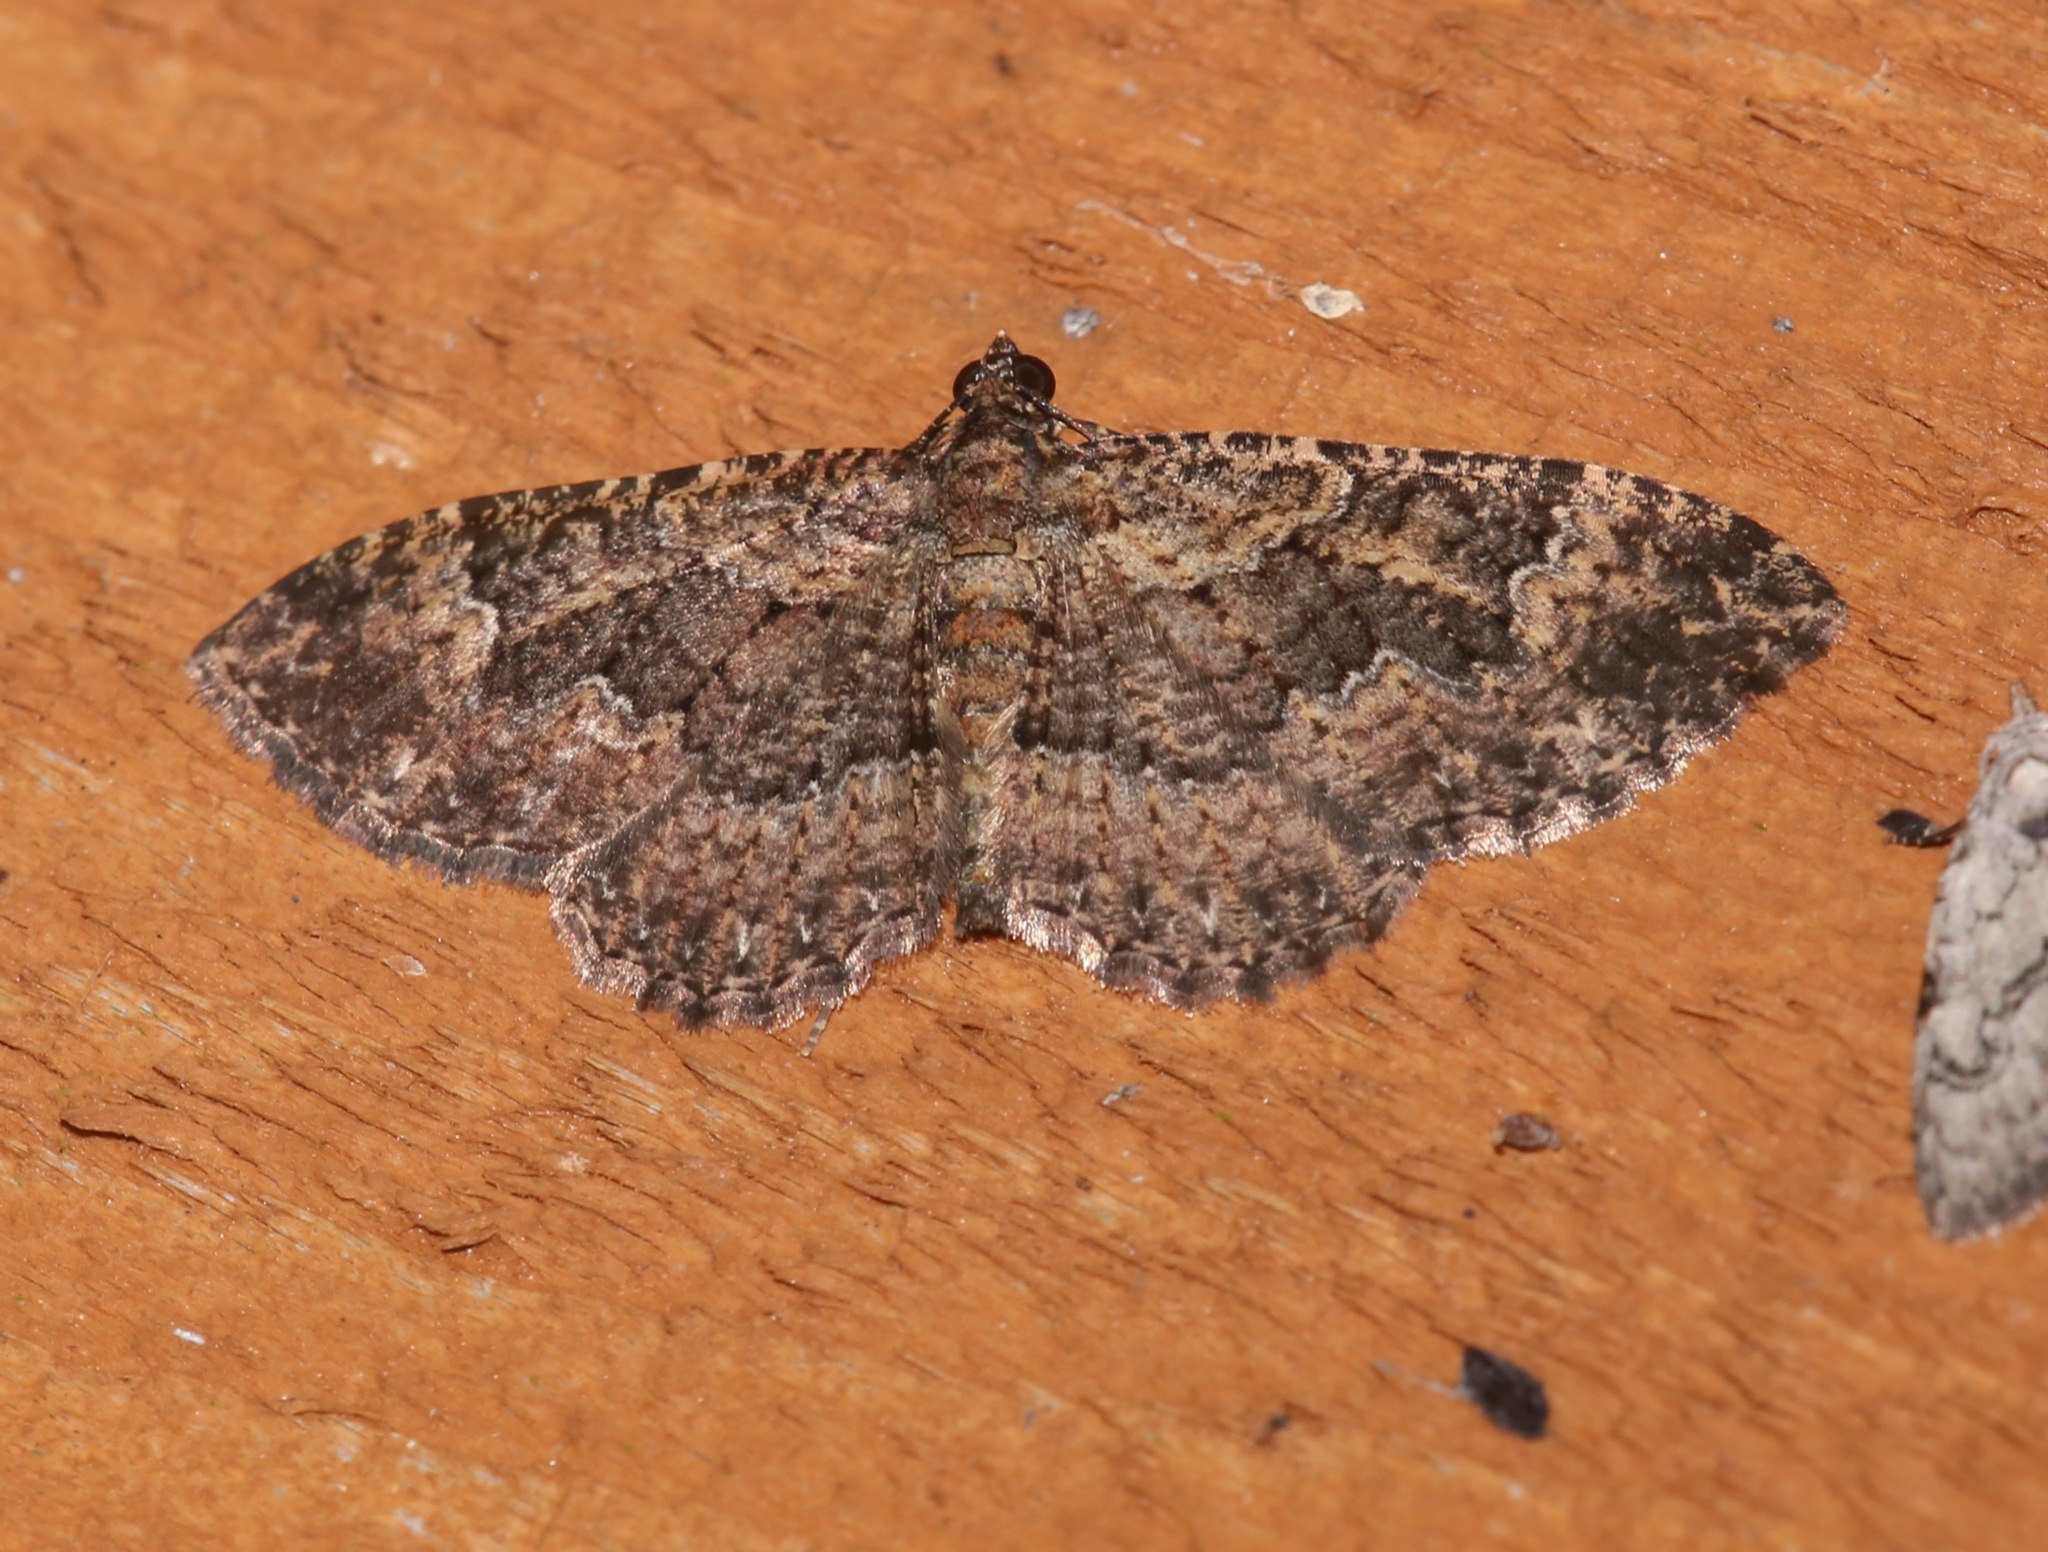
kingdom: Animalia
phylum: Arthropoda
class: Insecta
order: Lepidoptera
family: Geometridae
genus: Disclisioprocta
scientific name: Disclisioprocta stellata
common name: Somber carpet
